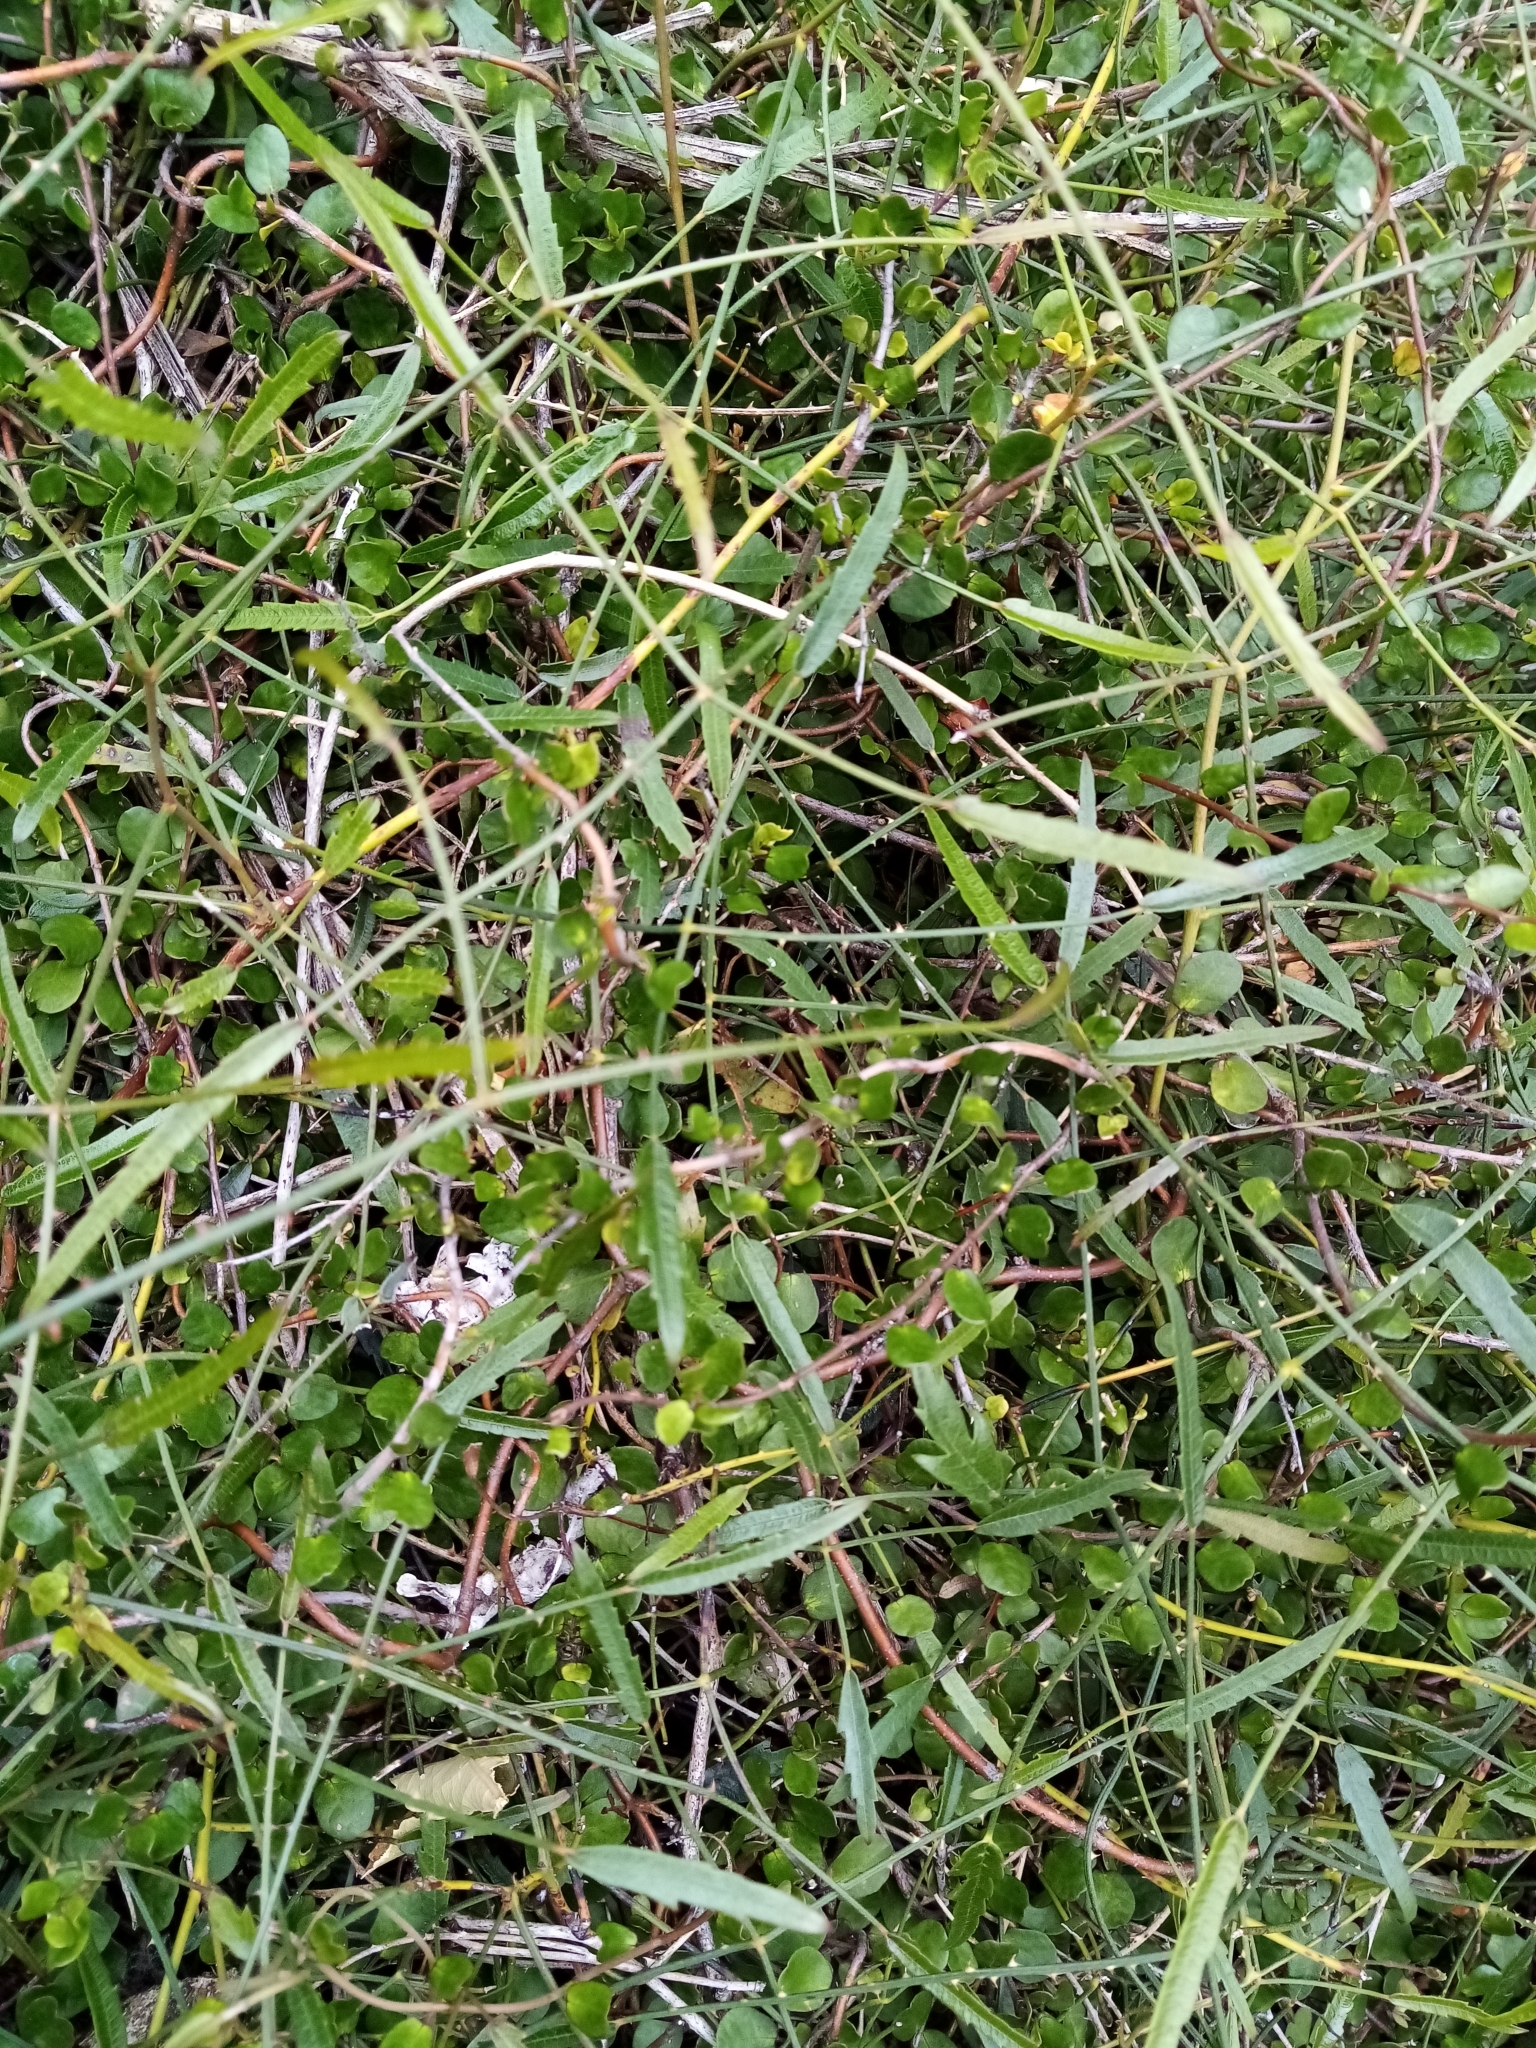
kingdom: Plantae
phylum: Tracheophyta
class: Magnoliopsida
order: Rosales
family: Rosaceae
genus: Rubus
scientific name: Rubus squarrosus
